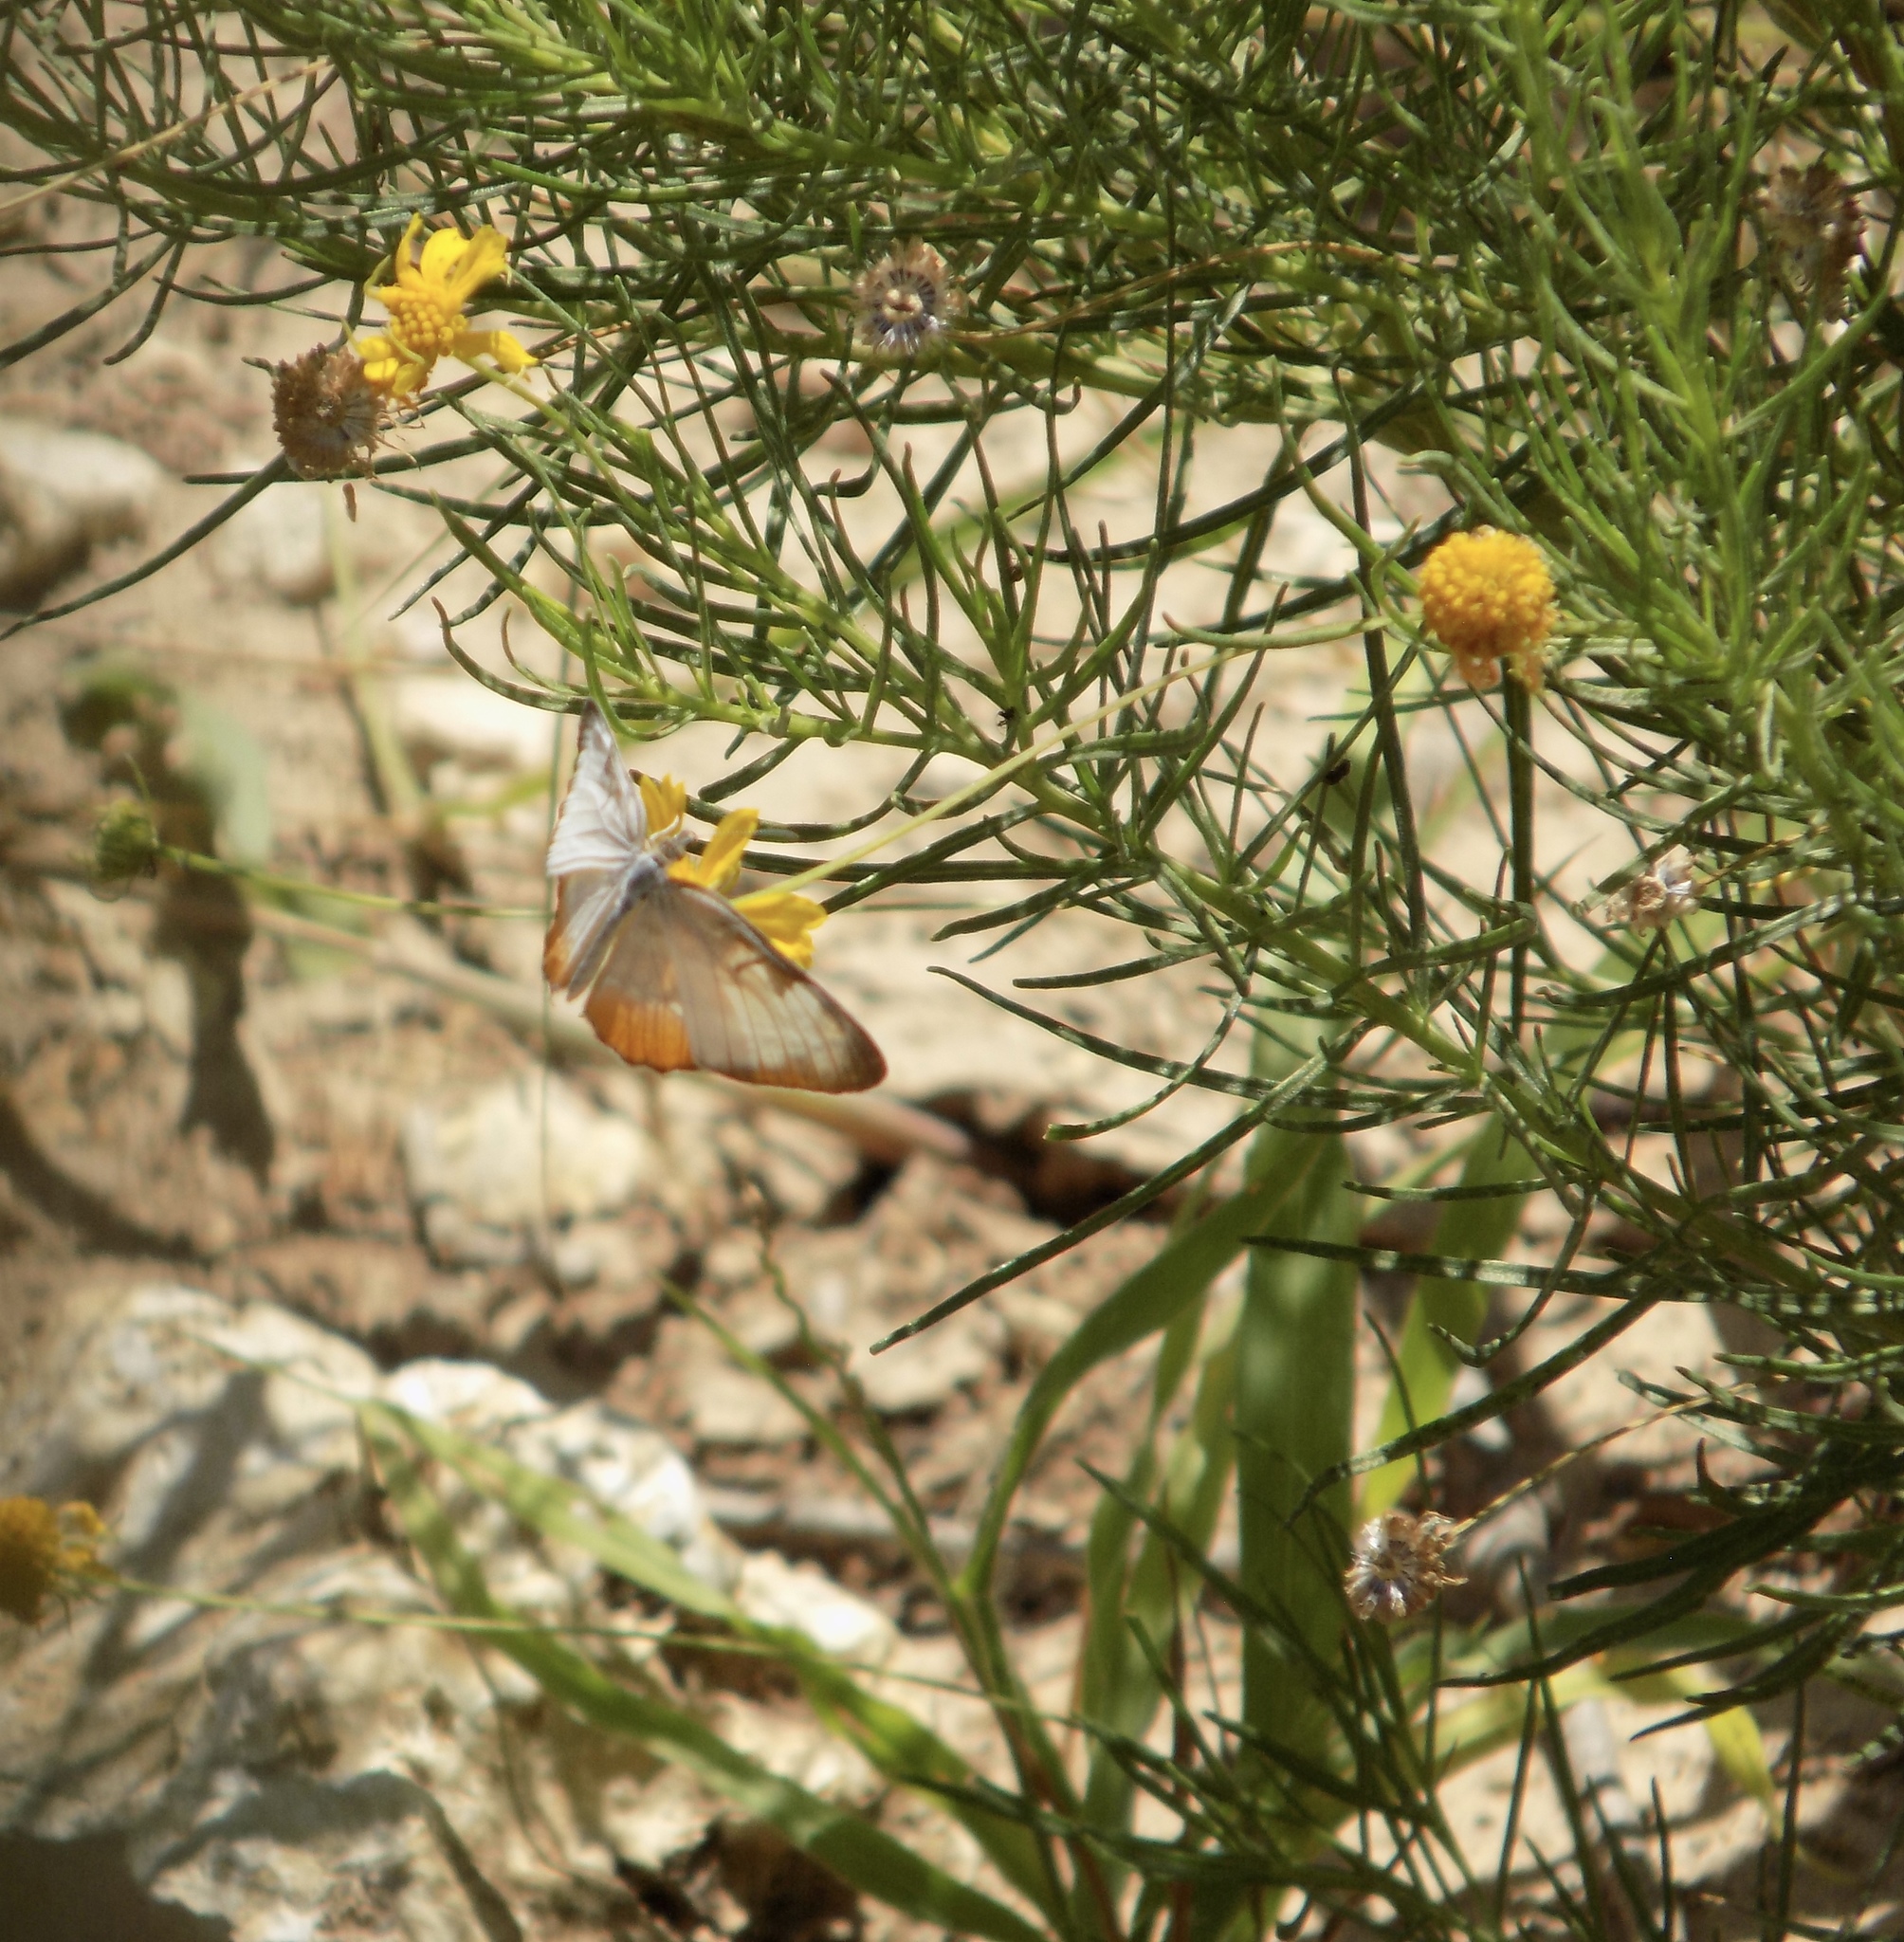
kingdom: Animalia
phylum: Arthropoda
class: Insecta
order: Lepidoptera
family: Nymphalidae
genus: Mestra
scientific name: Mestra amymone
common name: Common mestra
